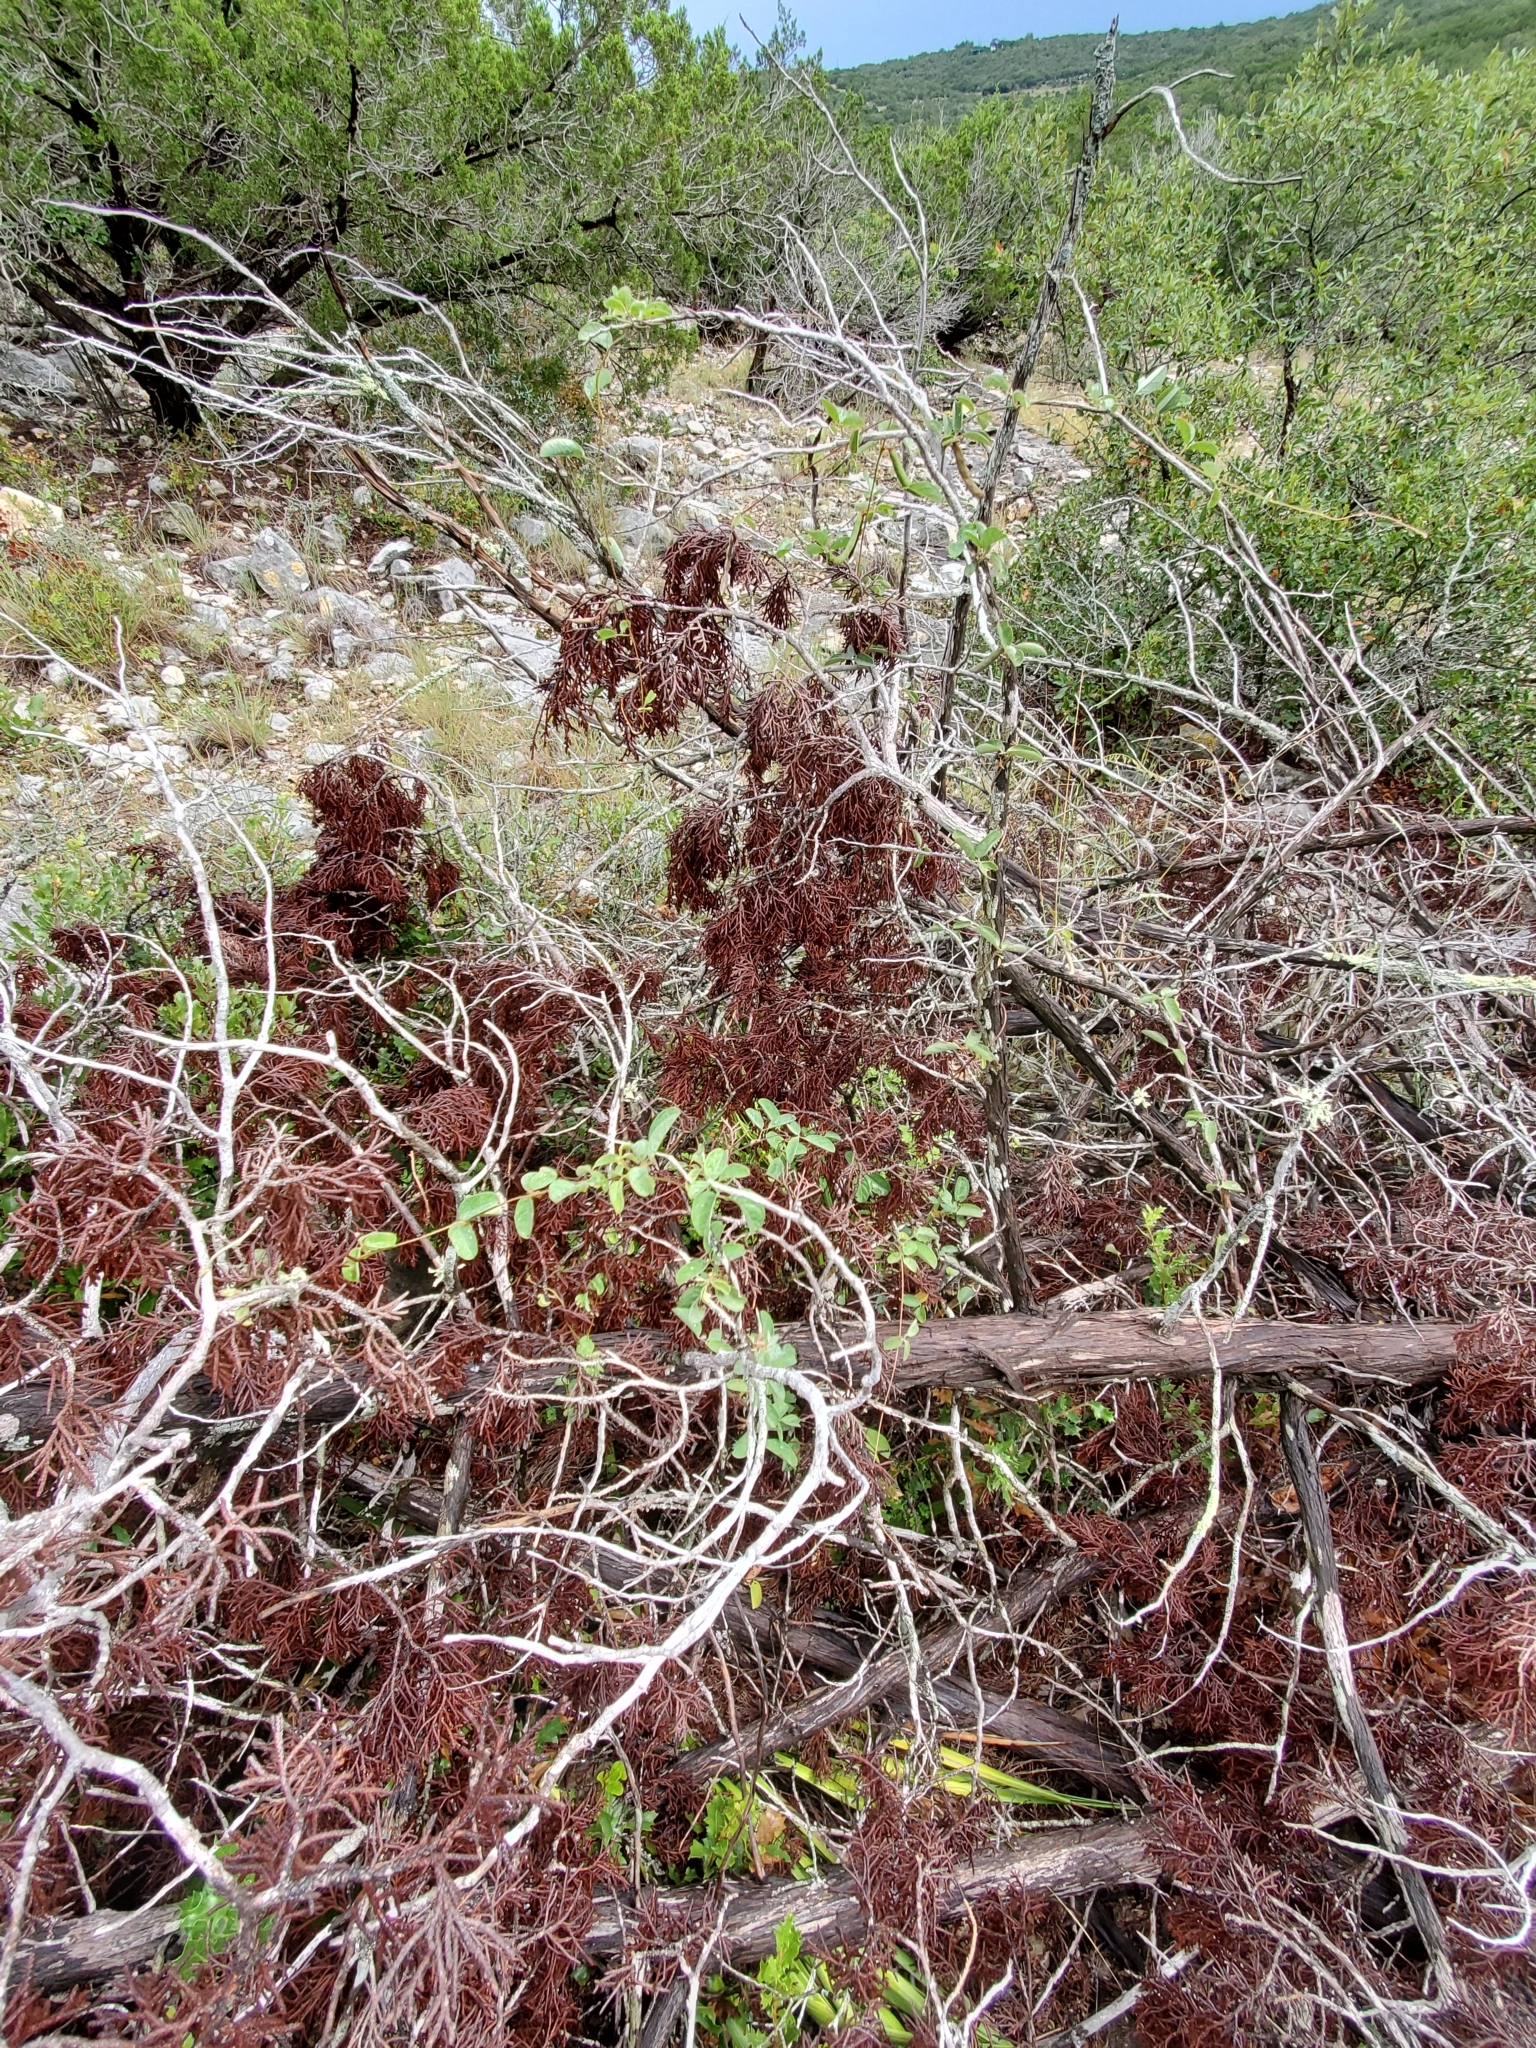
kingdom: Plantae
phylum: Tracheophyta
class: Magnoliopsida
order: Fabales
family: Fabaceae
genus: Galactia
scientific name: Galactia texana
